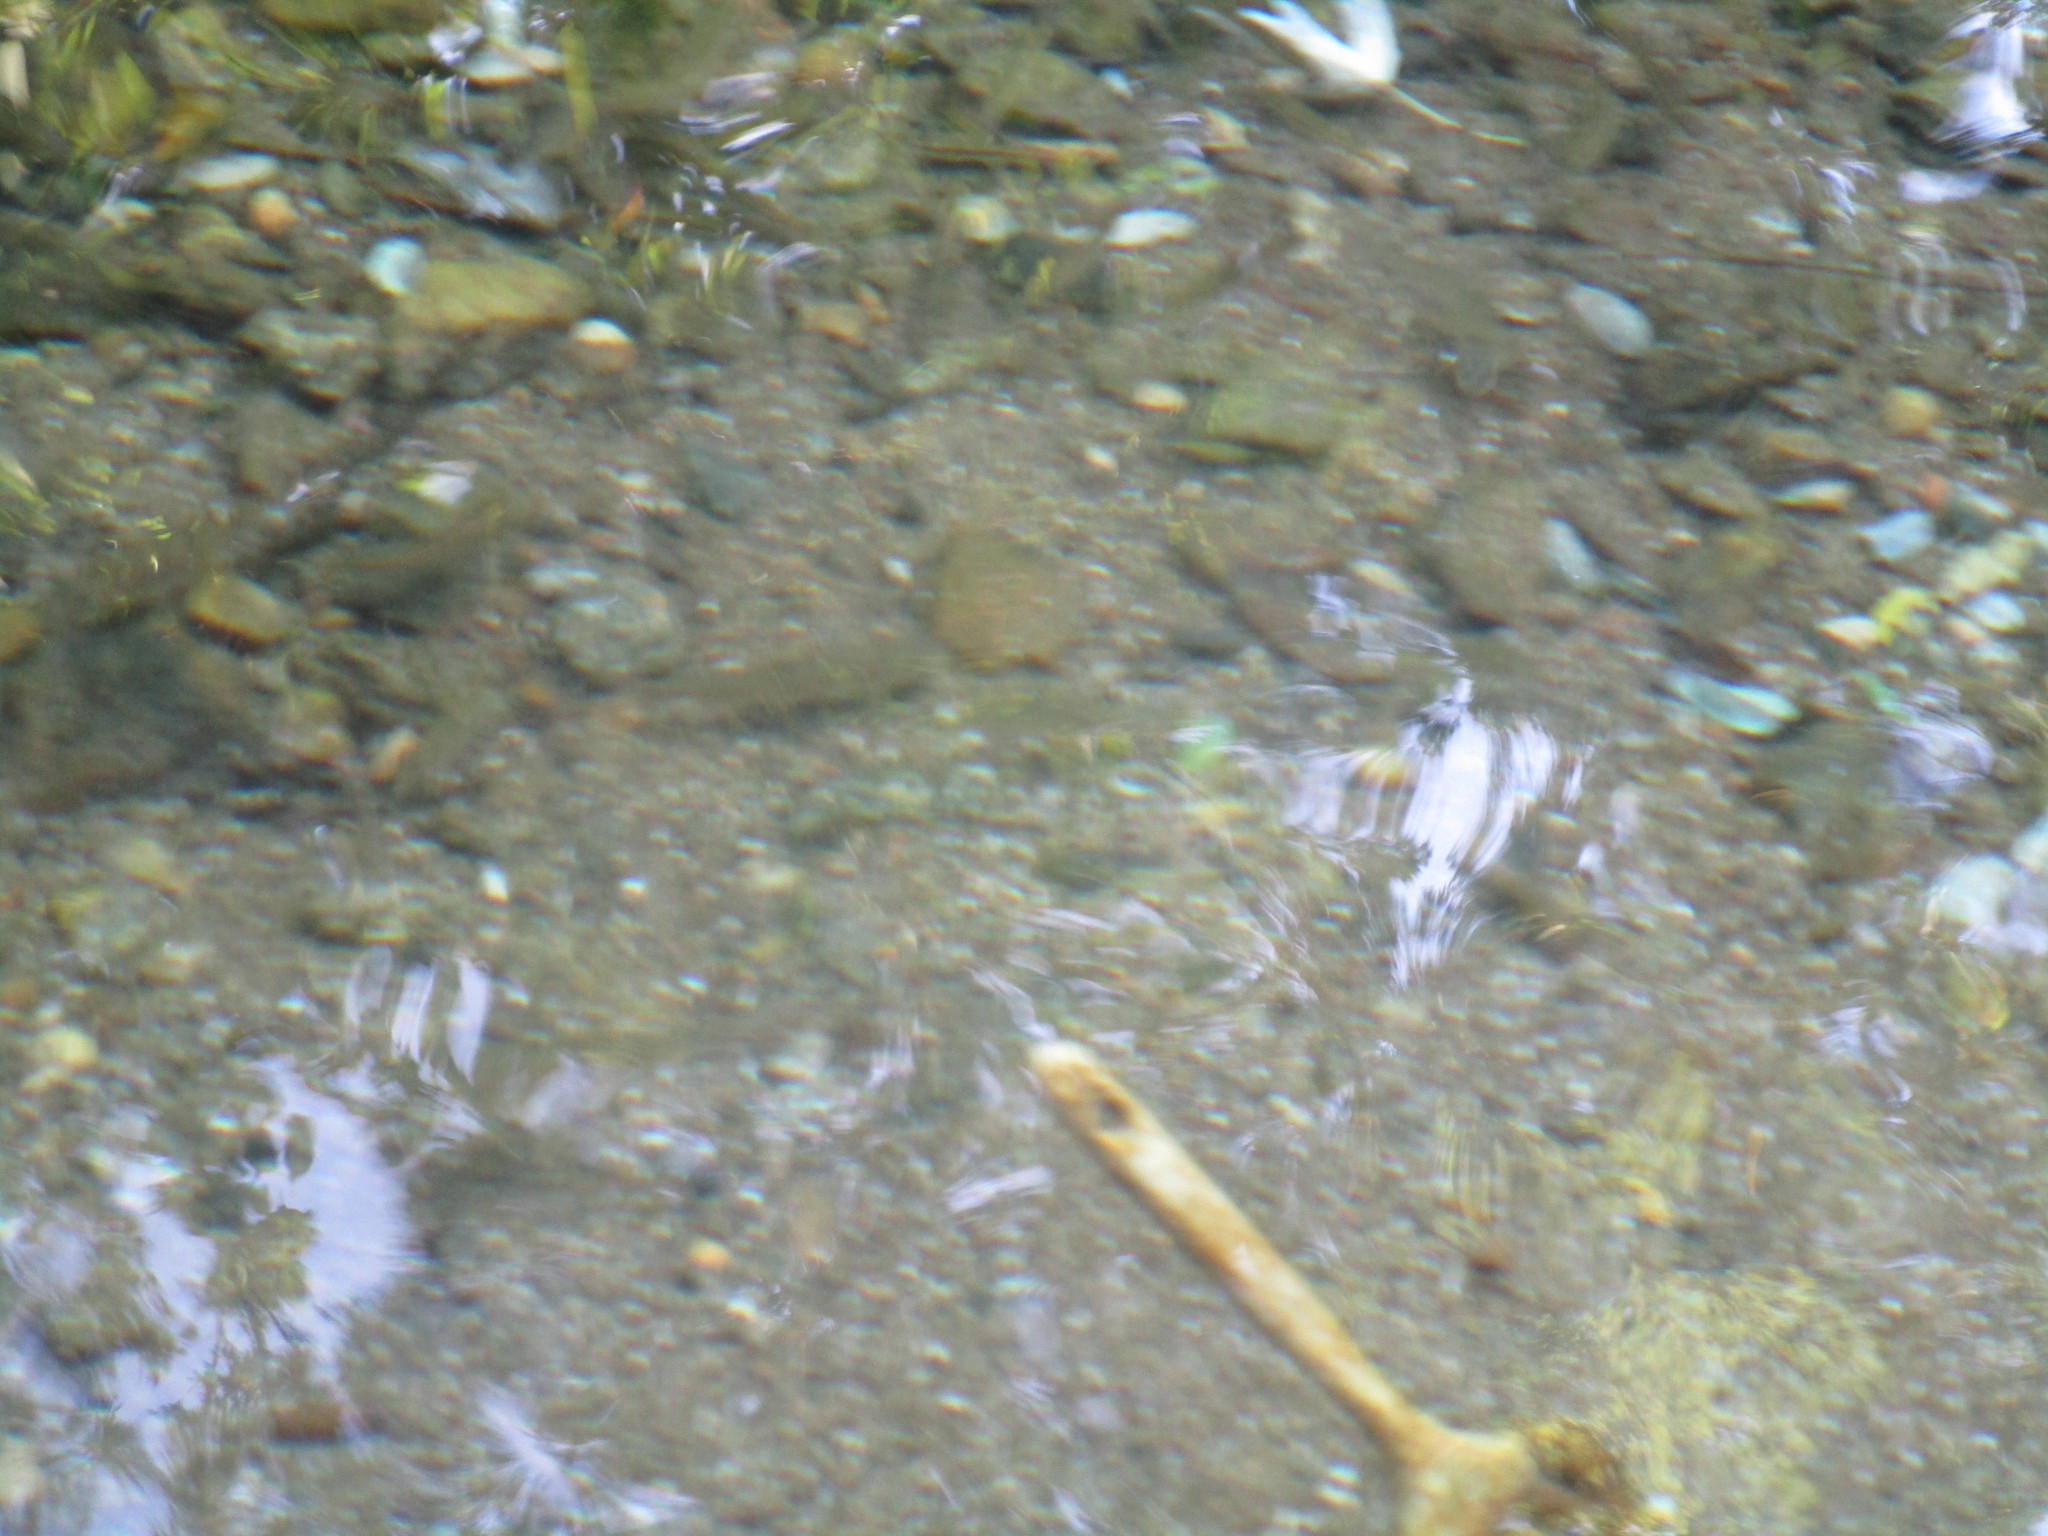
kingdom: Animalia
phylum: Chordata
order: Cypriniformes
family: Cyprinidae
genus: Semotilus
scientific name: Semotilus atromaculatus
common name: Creek chub
